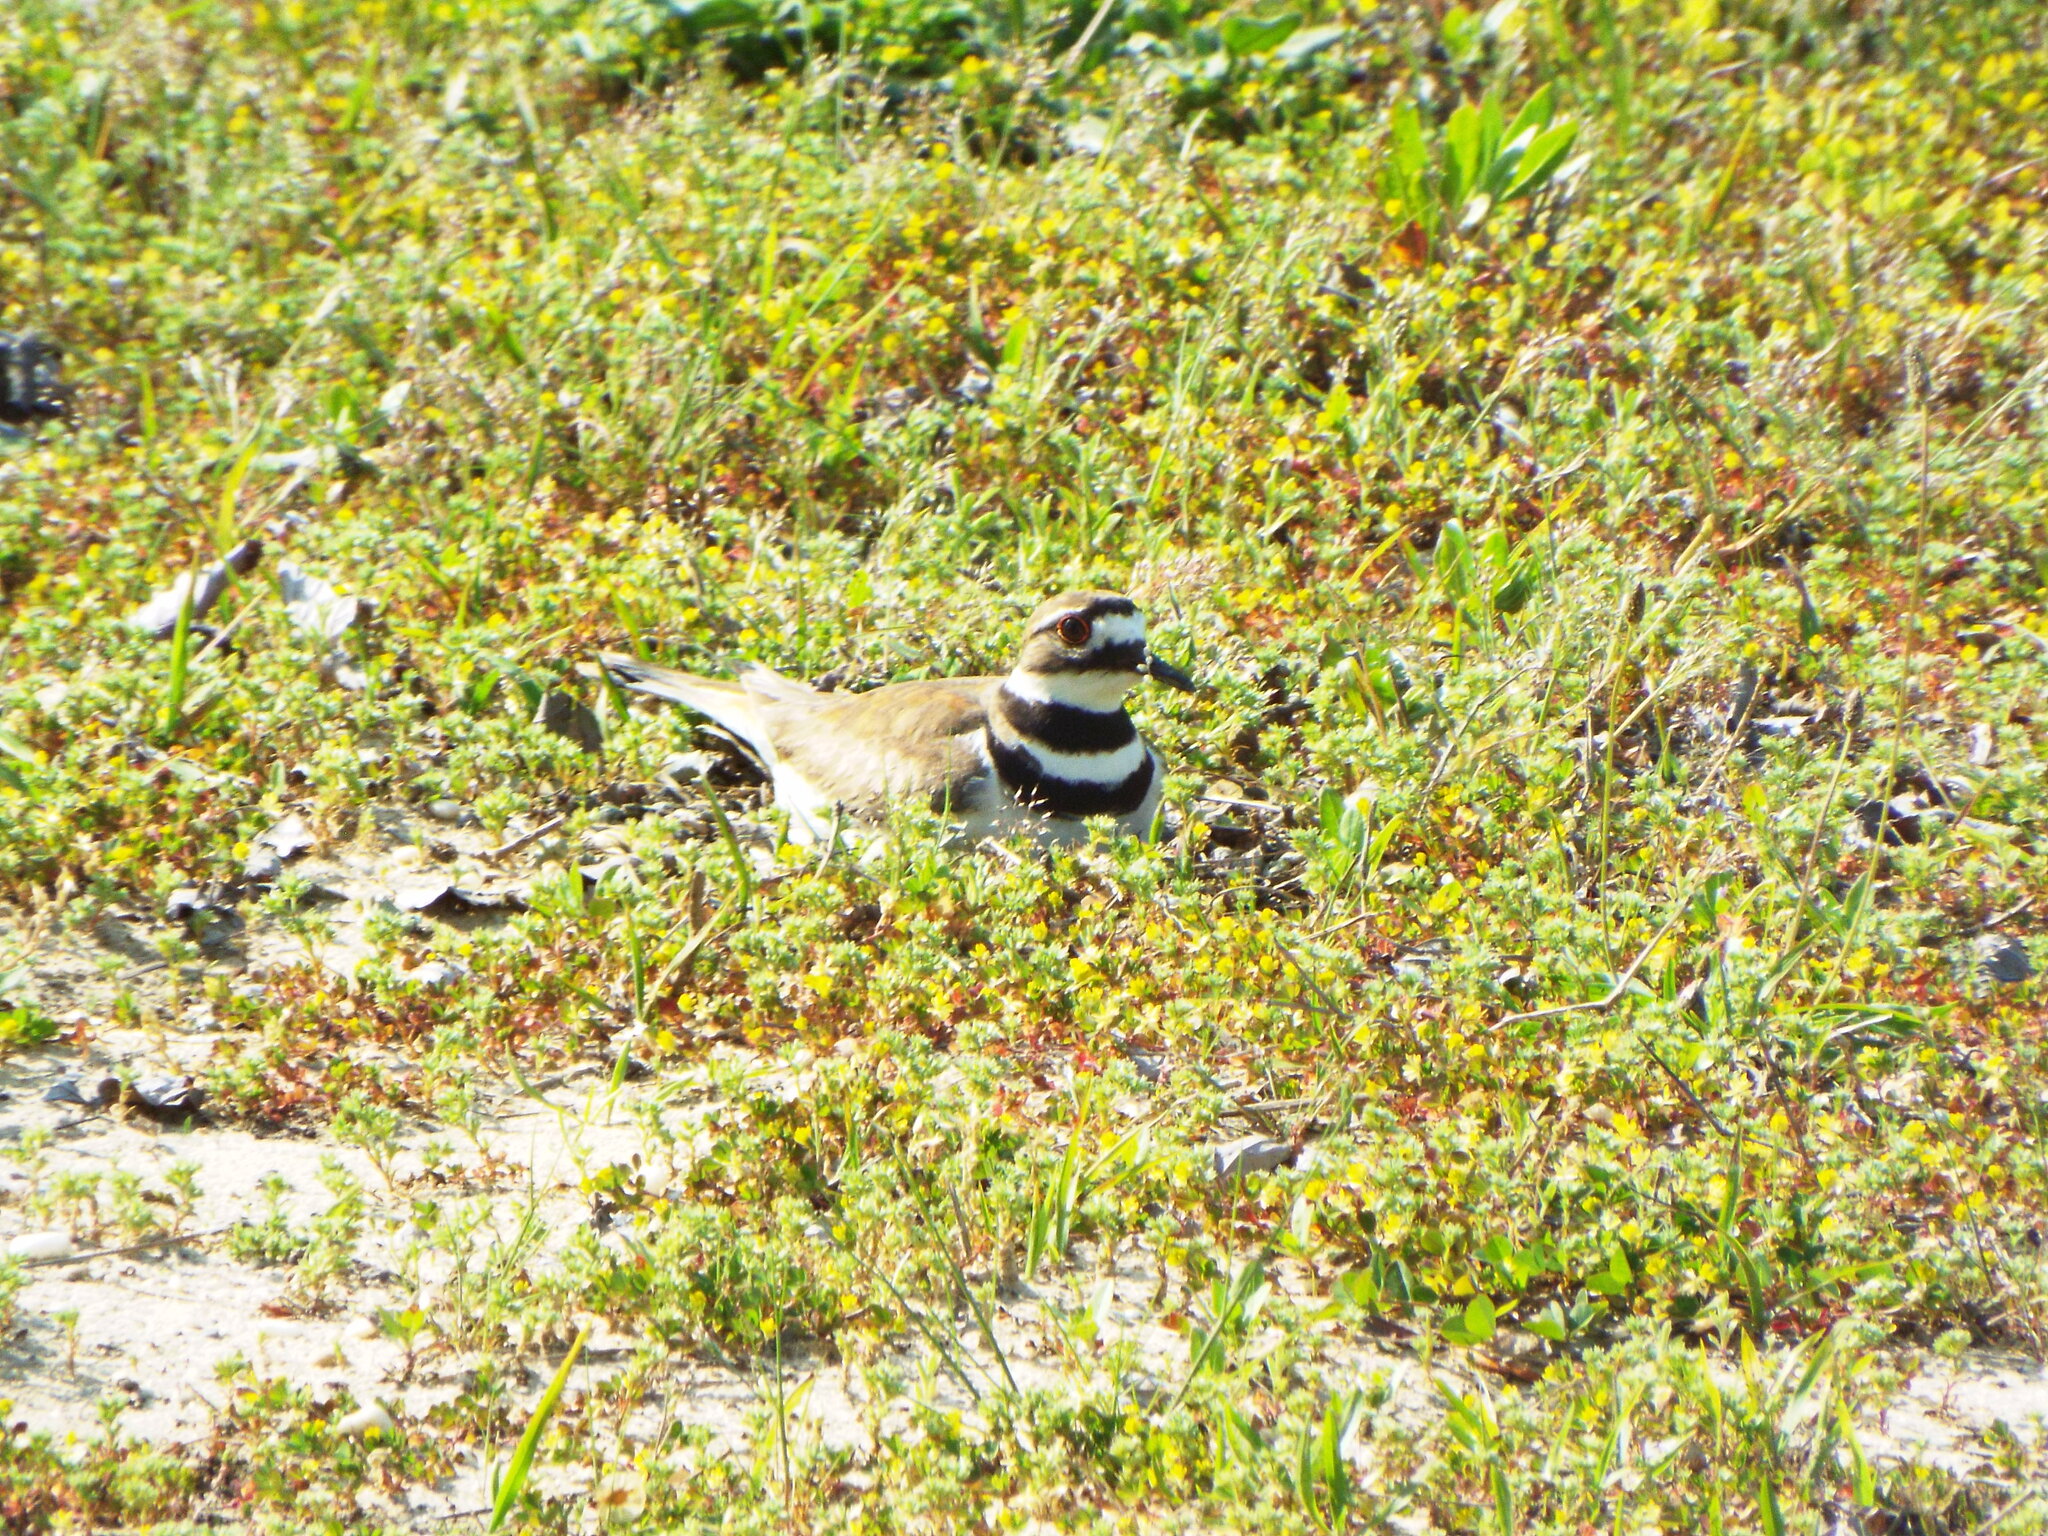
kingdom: Animalia
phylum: Chordata
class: Aves
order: Charadriiformes
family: Charadriidae
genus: Charadrius
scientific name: Charadrius vociferus
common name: Killdeer
